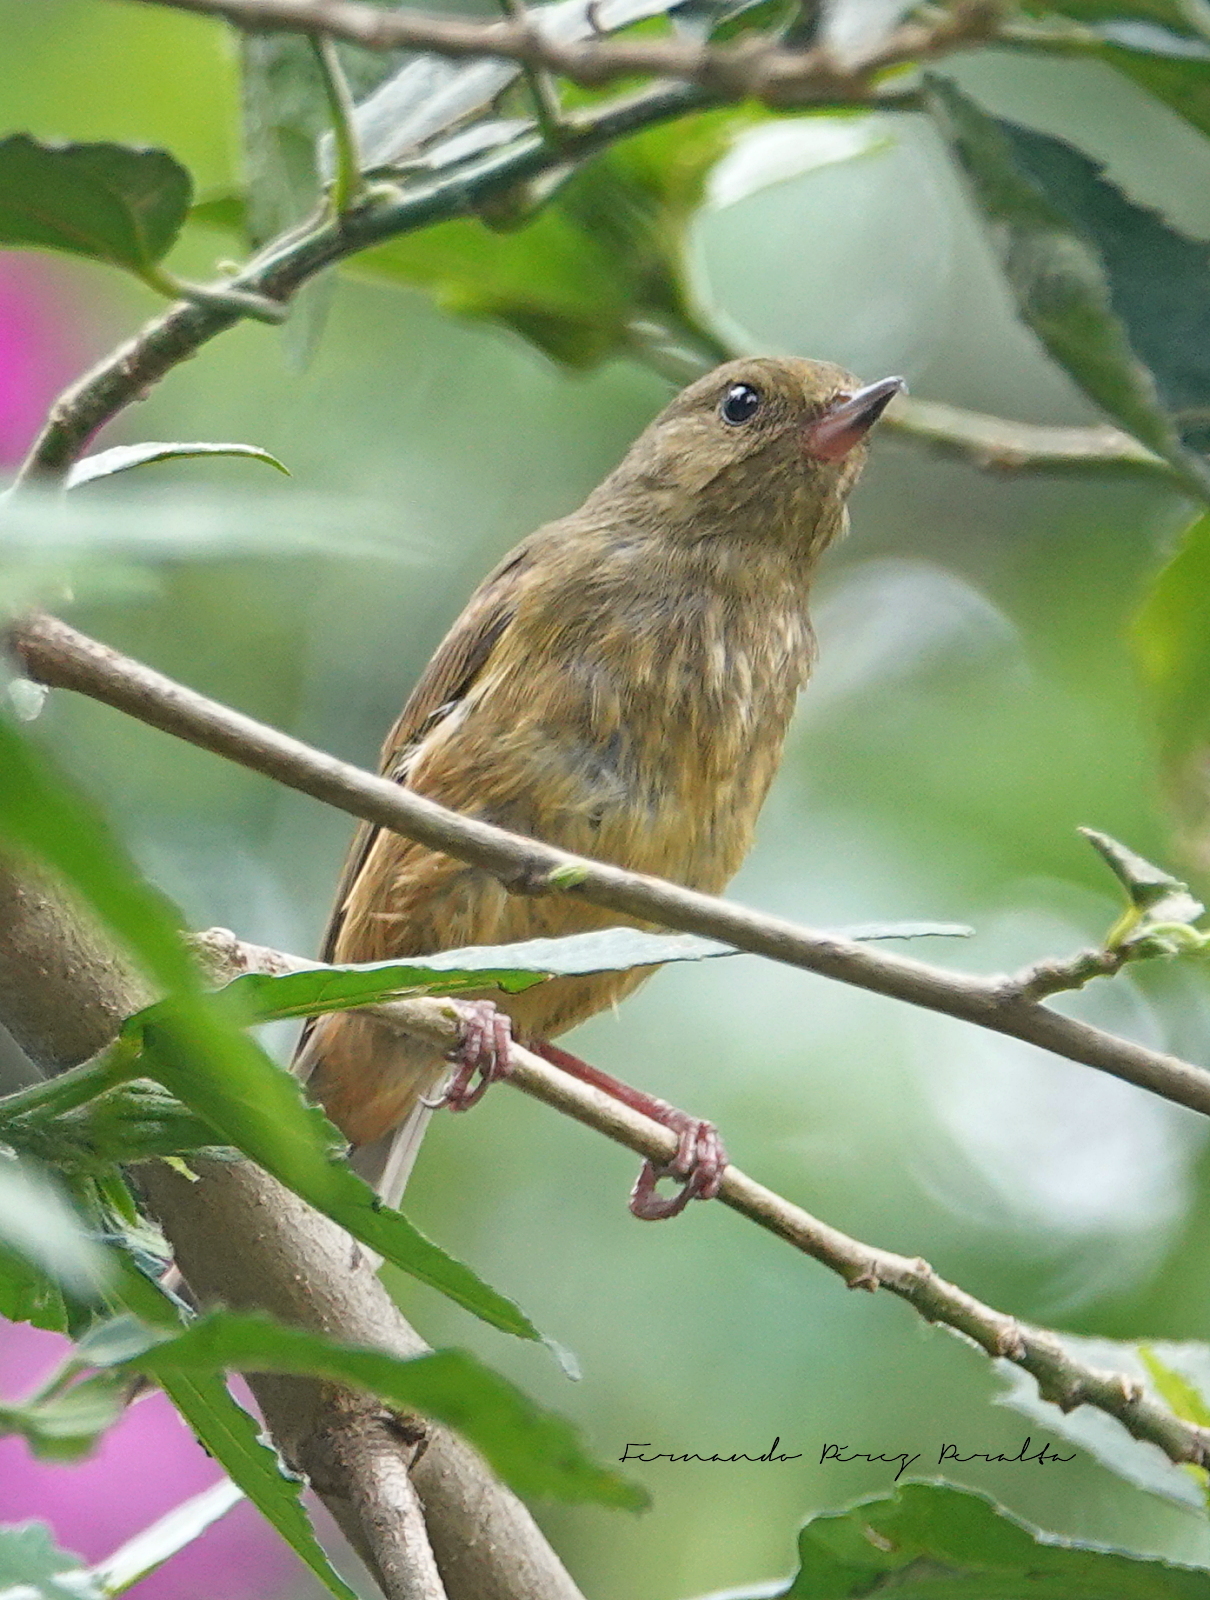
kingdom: Animalia
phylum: Chordata
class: Aves
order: Passeriformes
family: Thraupidae
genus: Diglossa
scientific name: Diglossa baritula
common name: Cinnamon-bellied flowerpiercer
